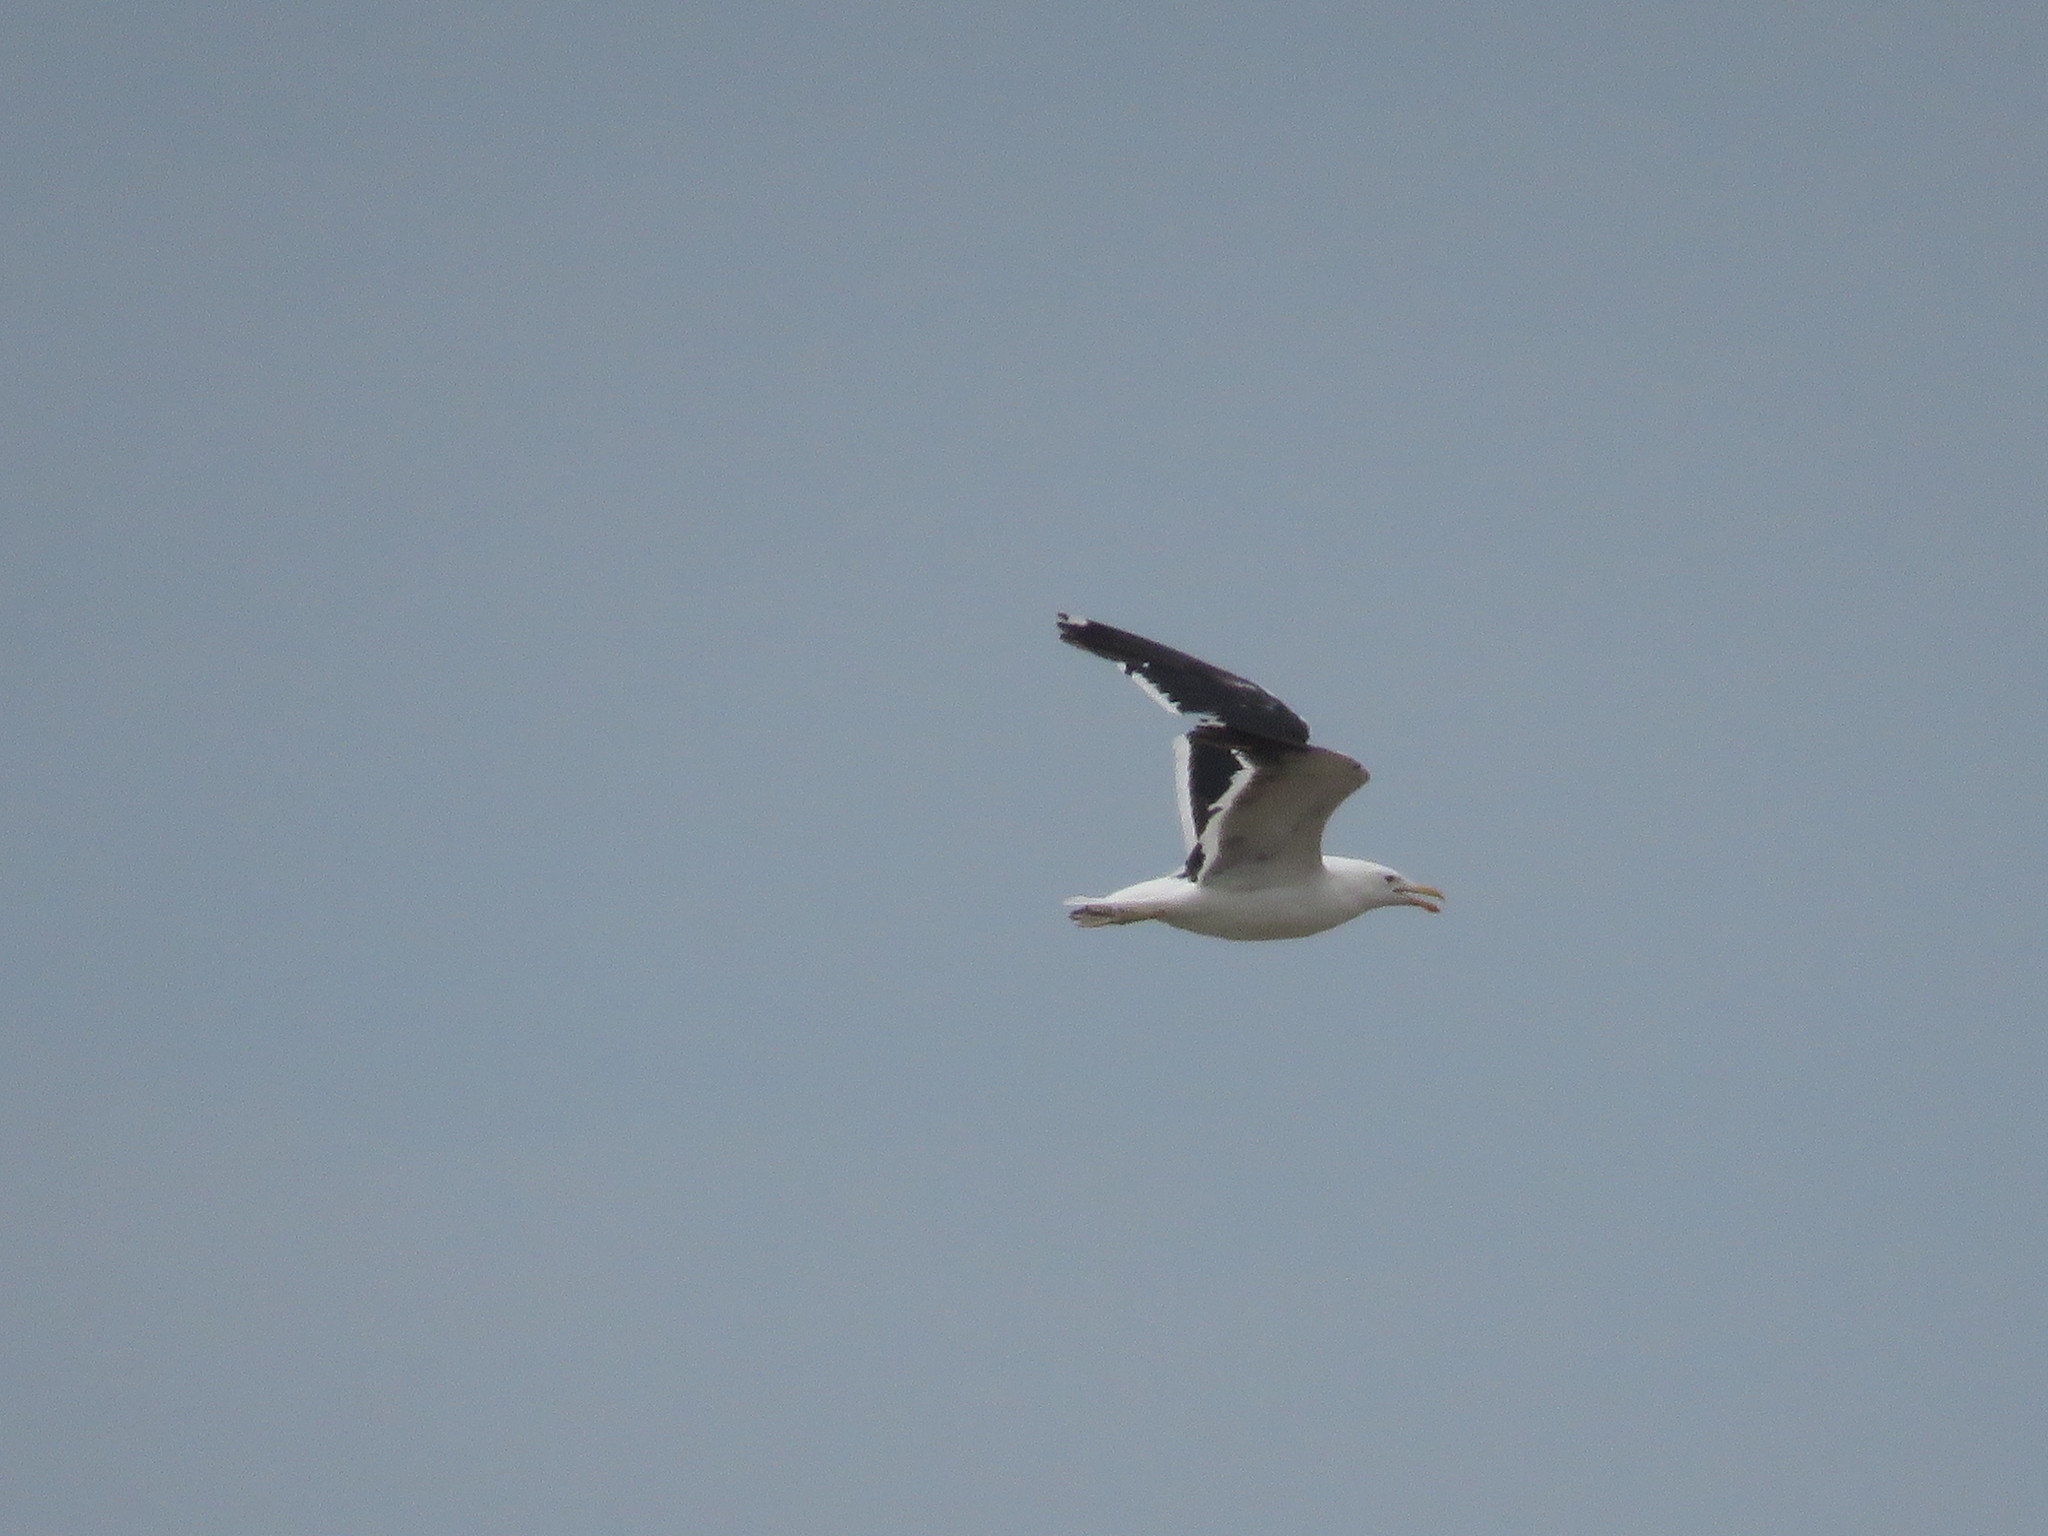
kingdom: Animalia
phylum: Chordata
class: Aves
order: Charadriiformes
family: Laridae
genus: Larus
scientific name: Larus dominicanus
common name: Kelp gull
